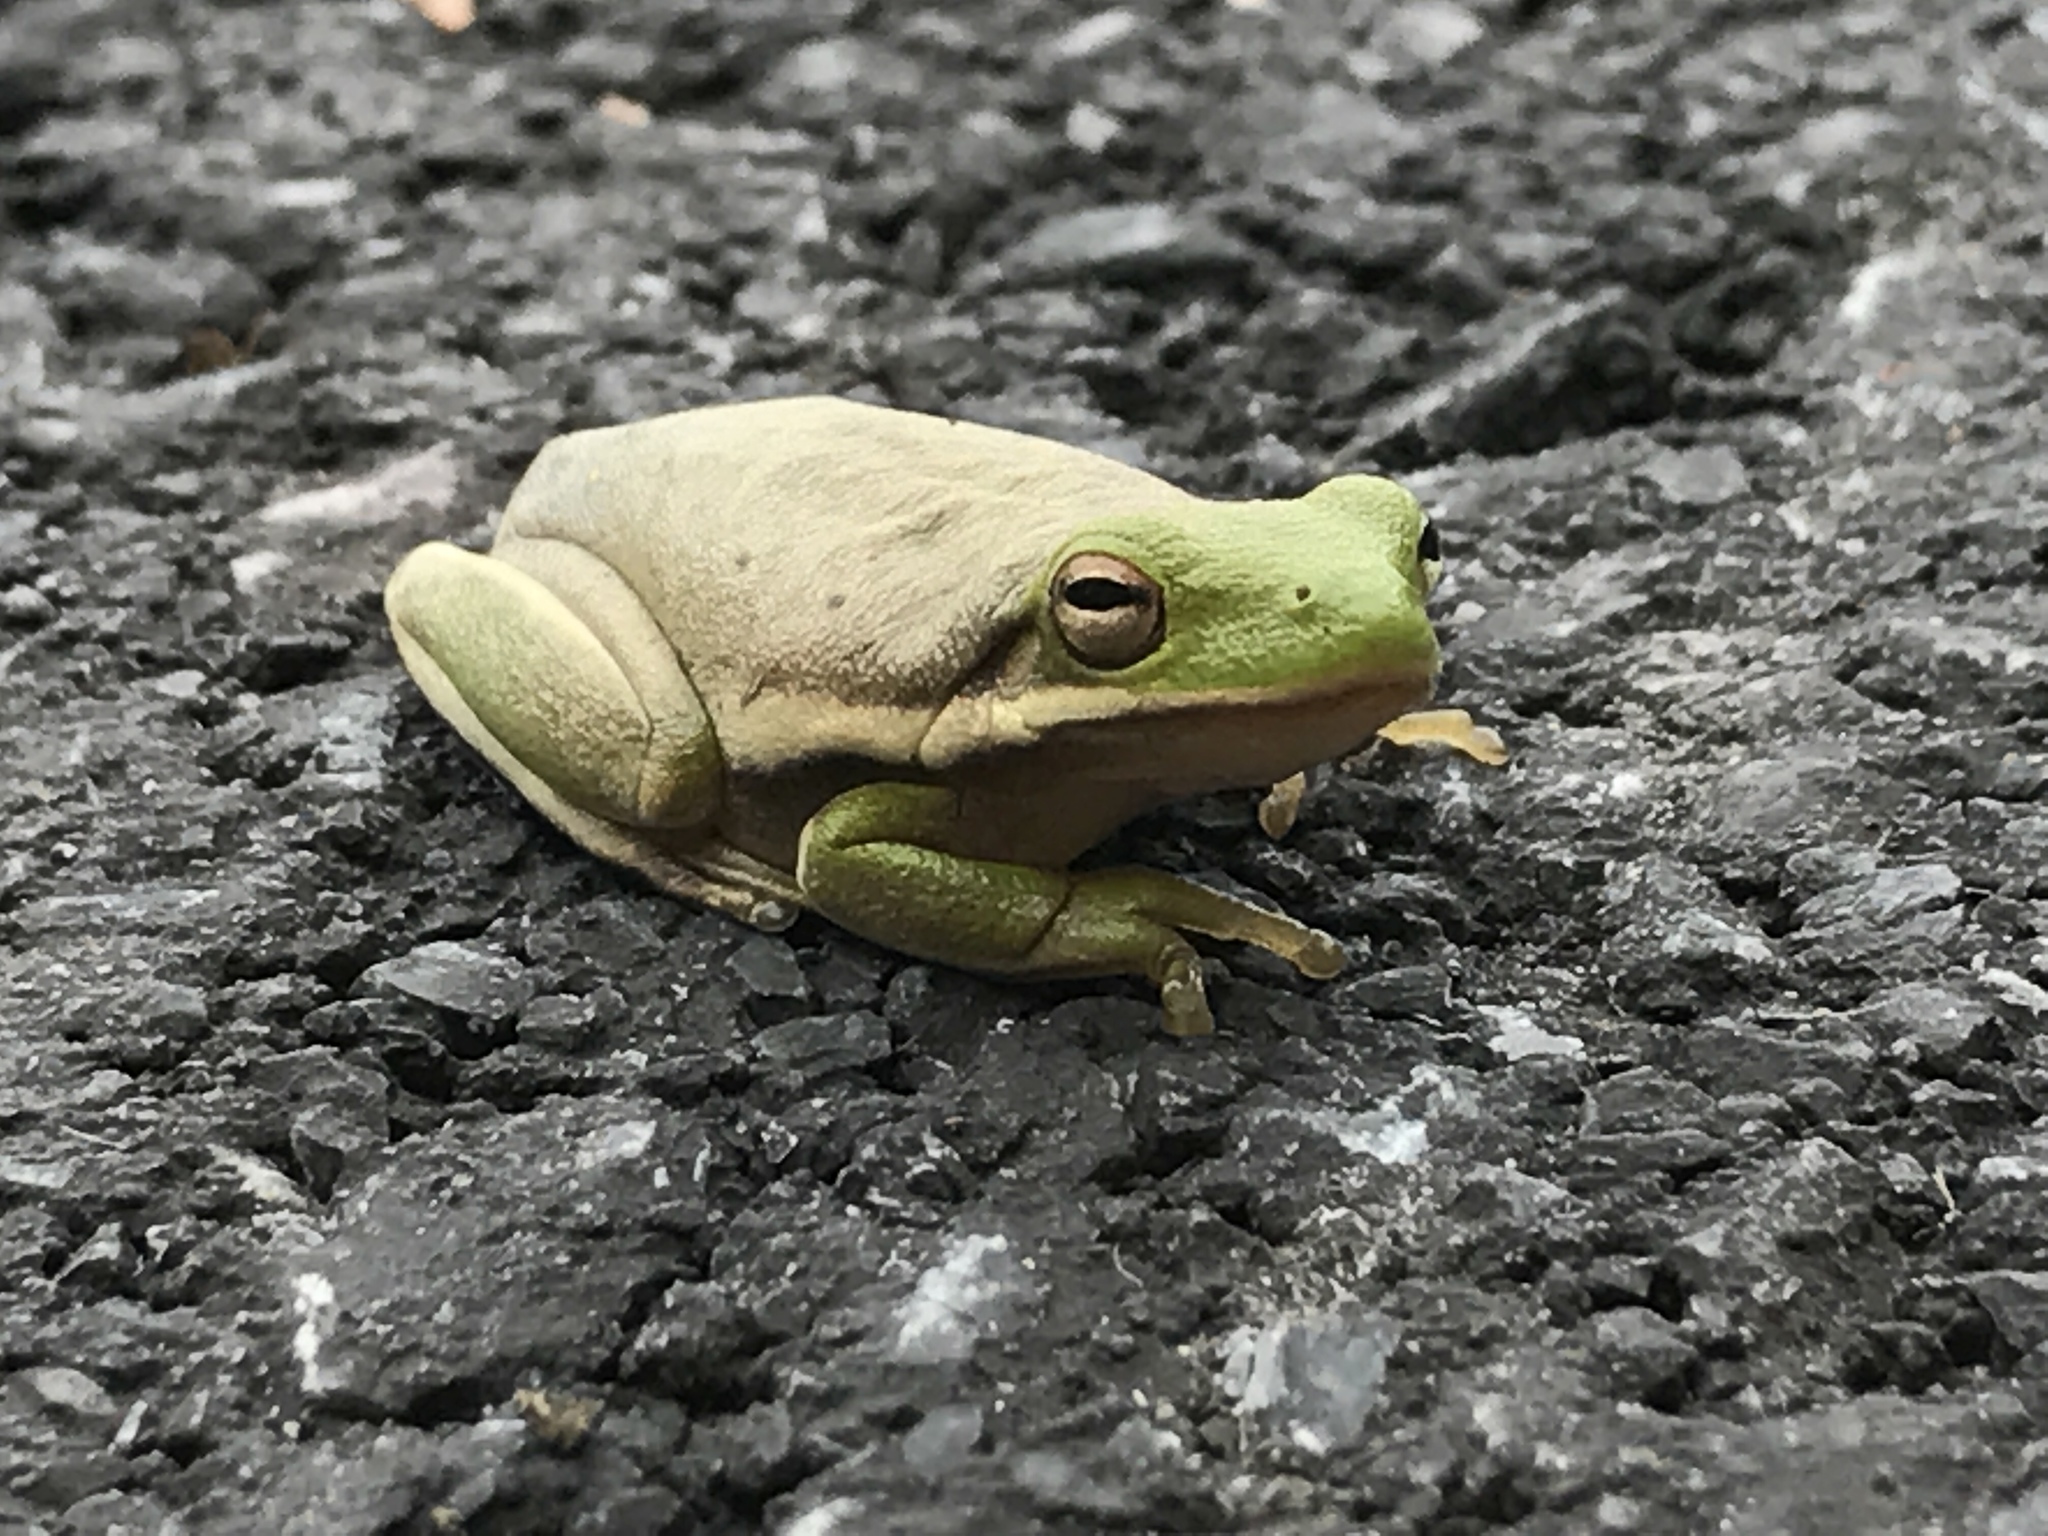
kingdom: Animalia
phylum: Chordata
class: Amphibia
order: Anura
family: Hylidae
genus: Dryophytes
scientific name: Dryophytes cinereus
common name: Green treefrog
